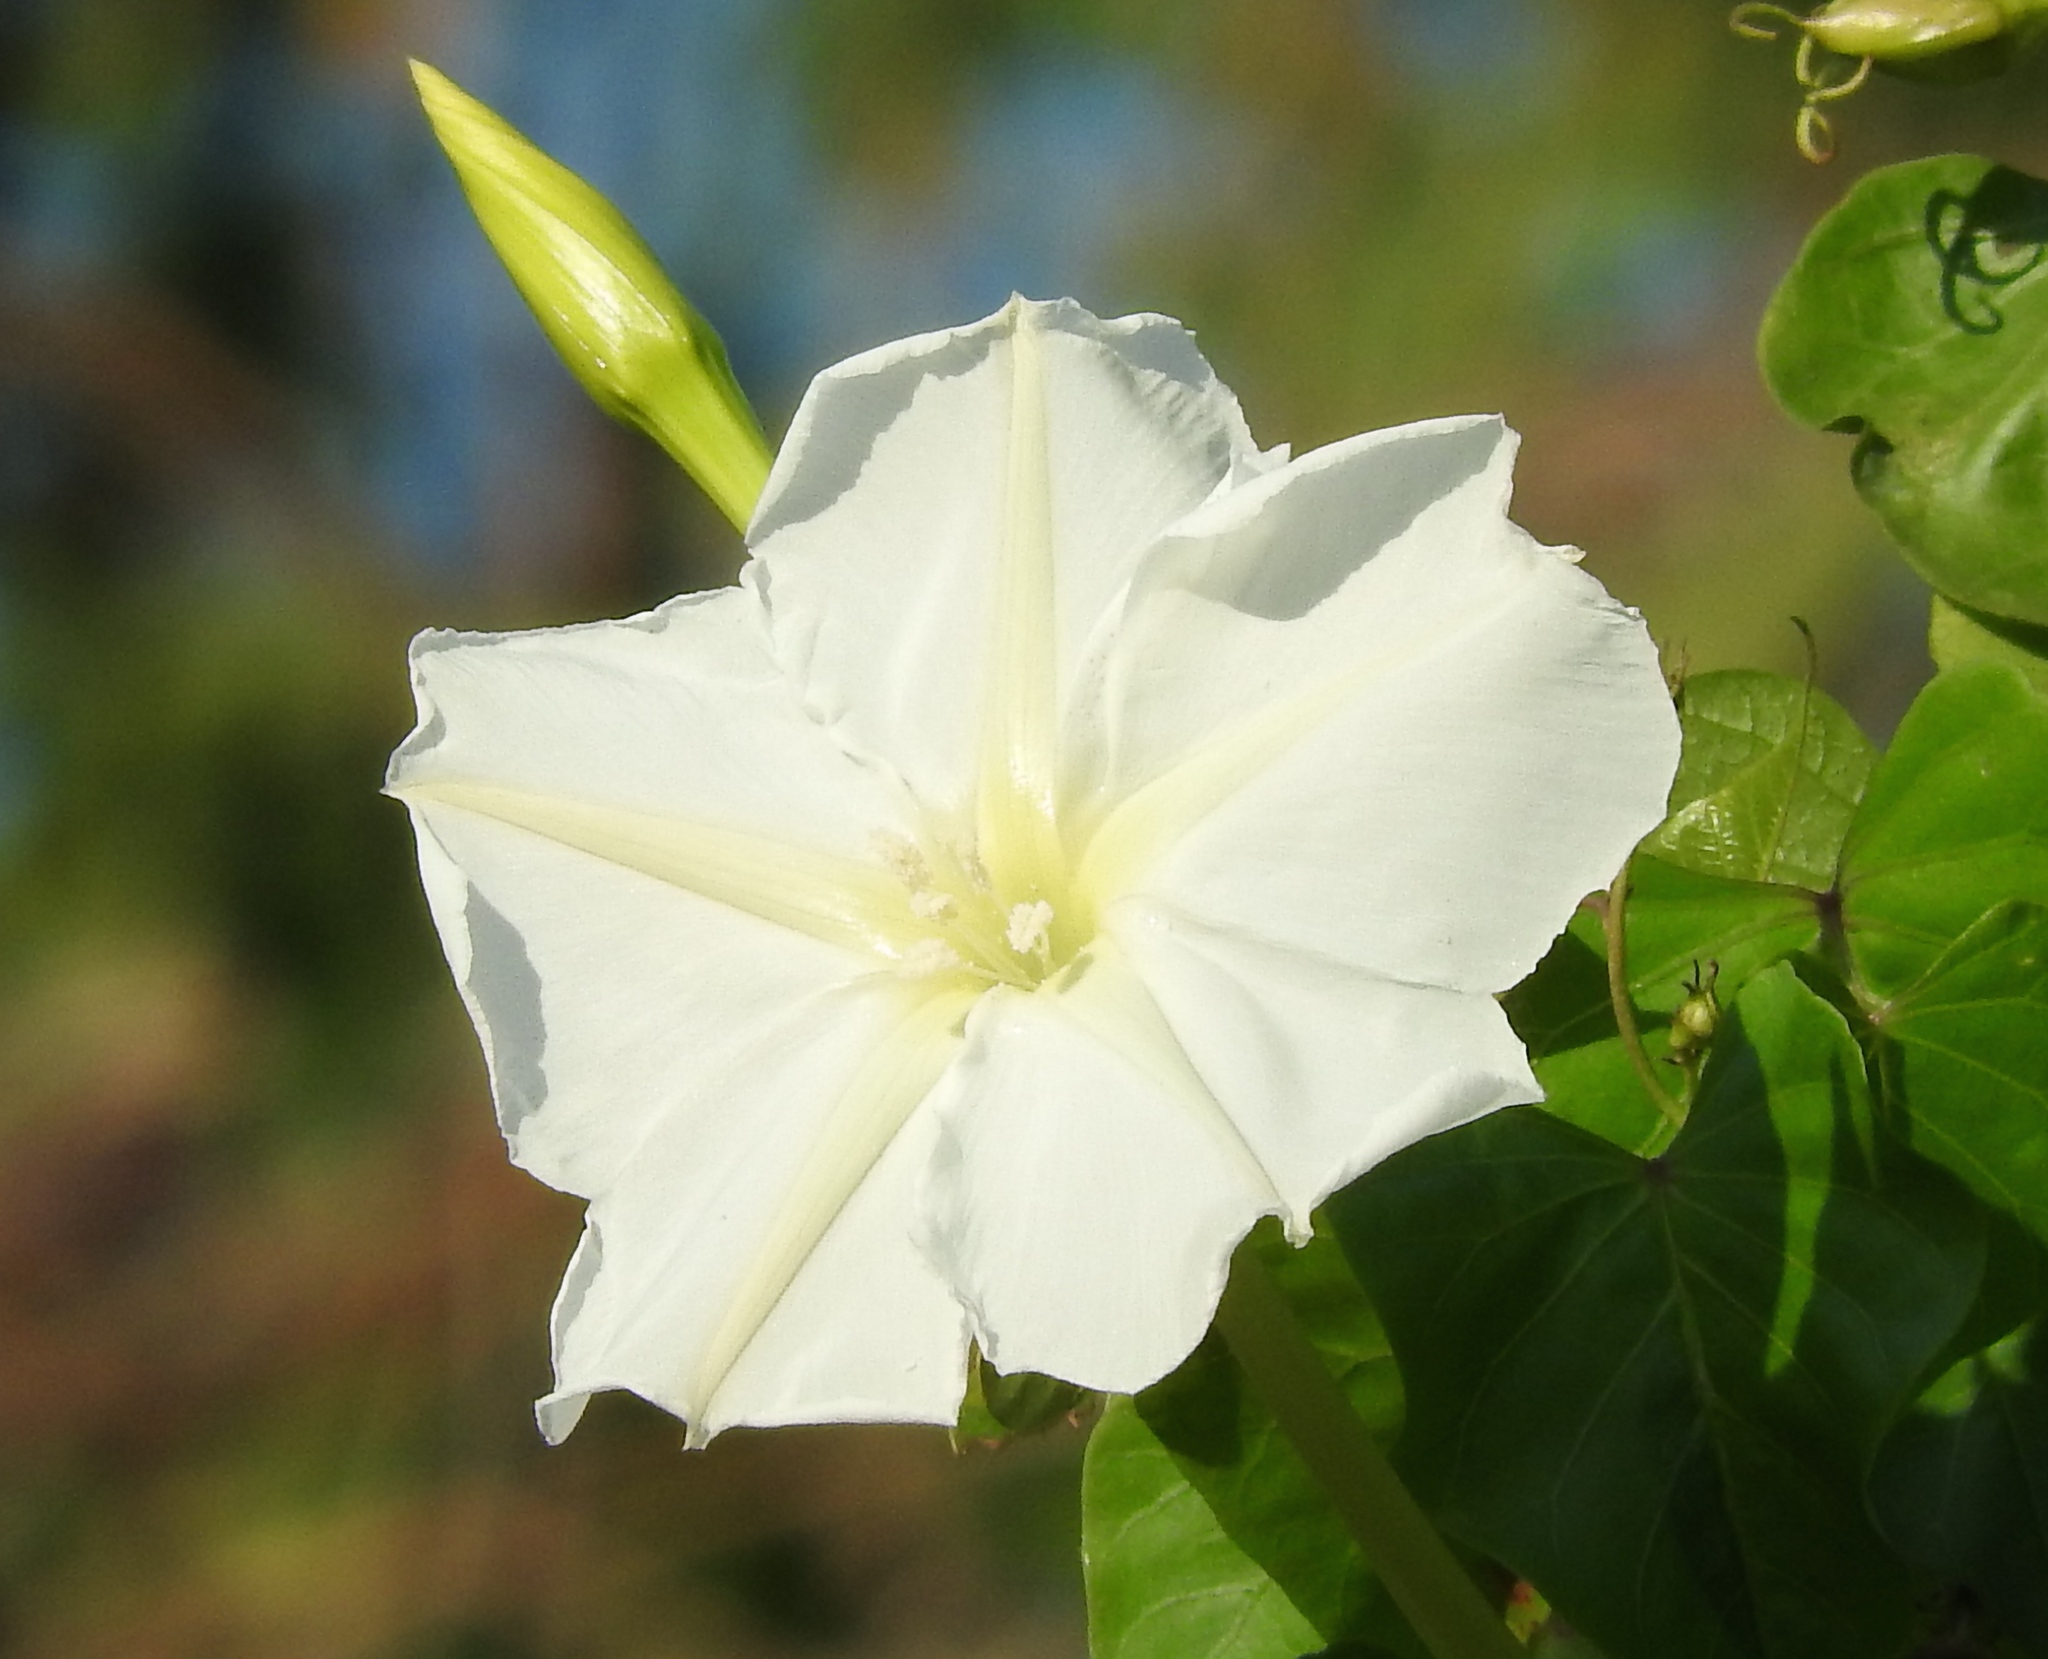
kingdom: Plantae
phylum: Tracheophyta
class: Magnoliopsida
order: Solanales
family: Convolvulaceae
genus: Ipomoea
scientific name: Ipomoea alba
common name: Moonflower
